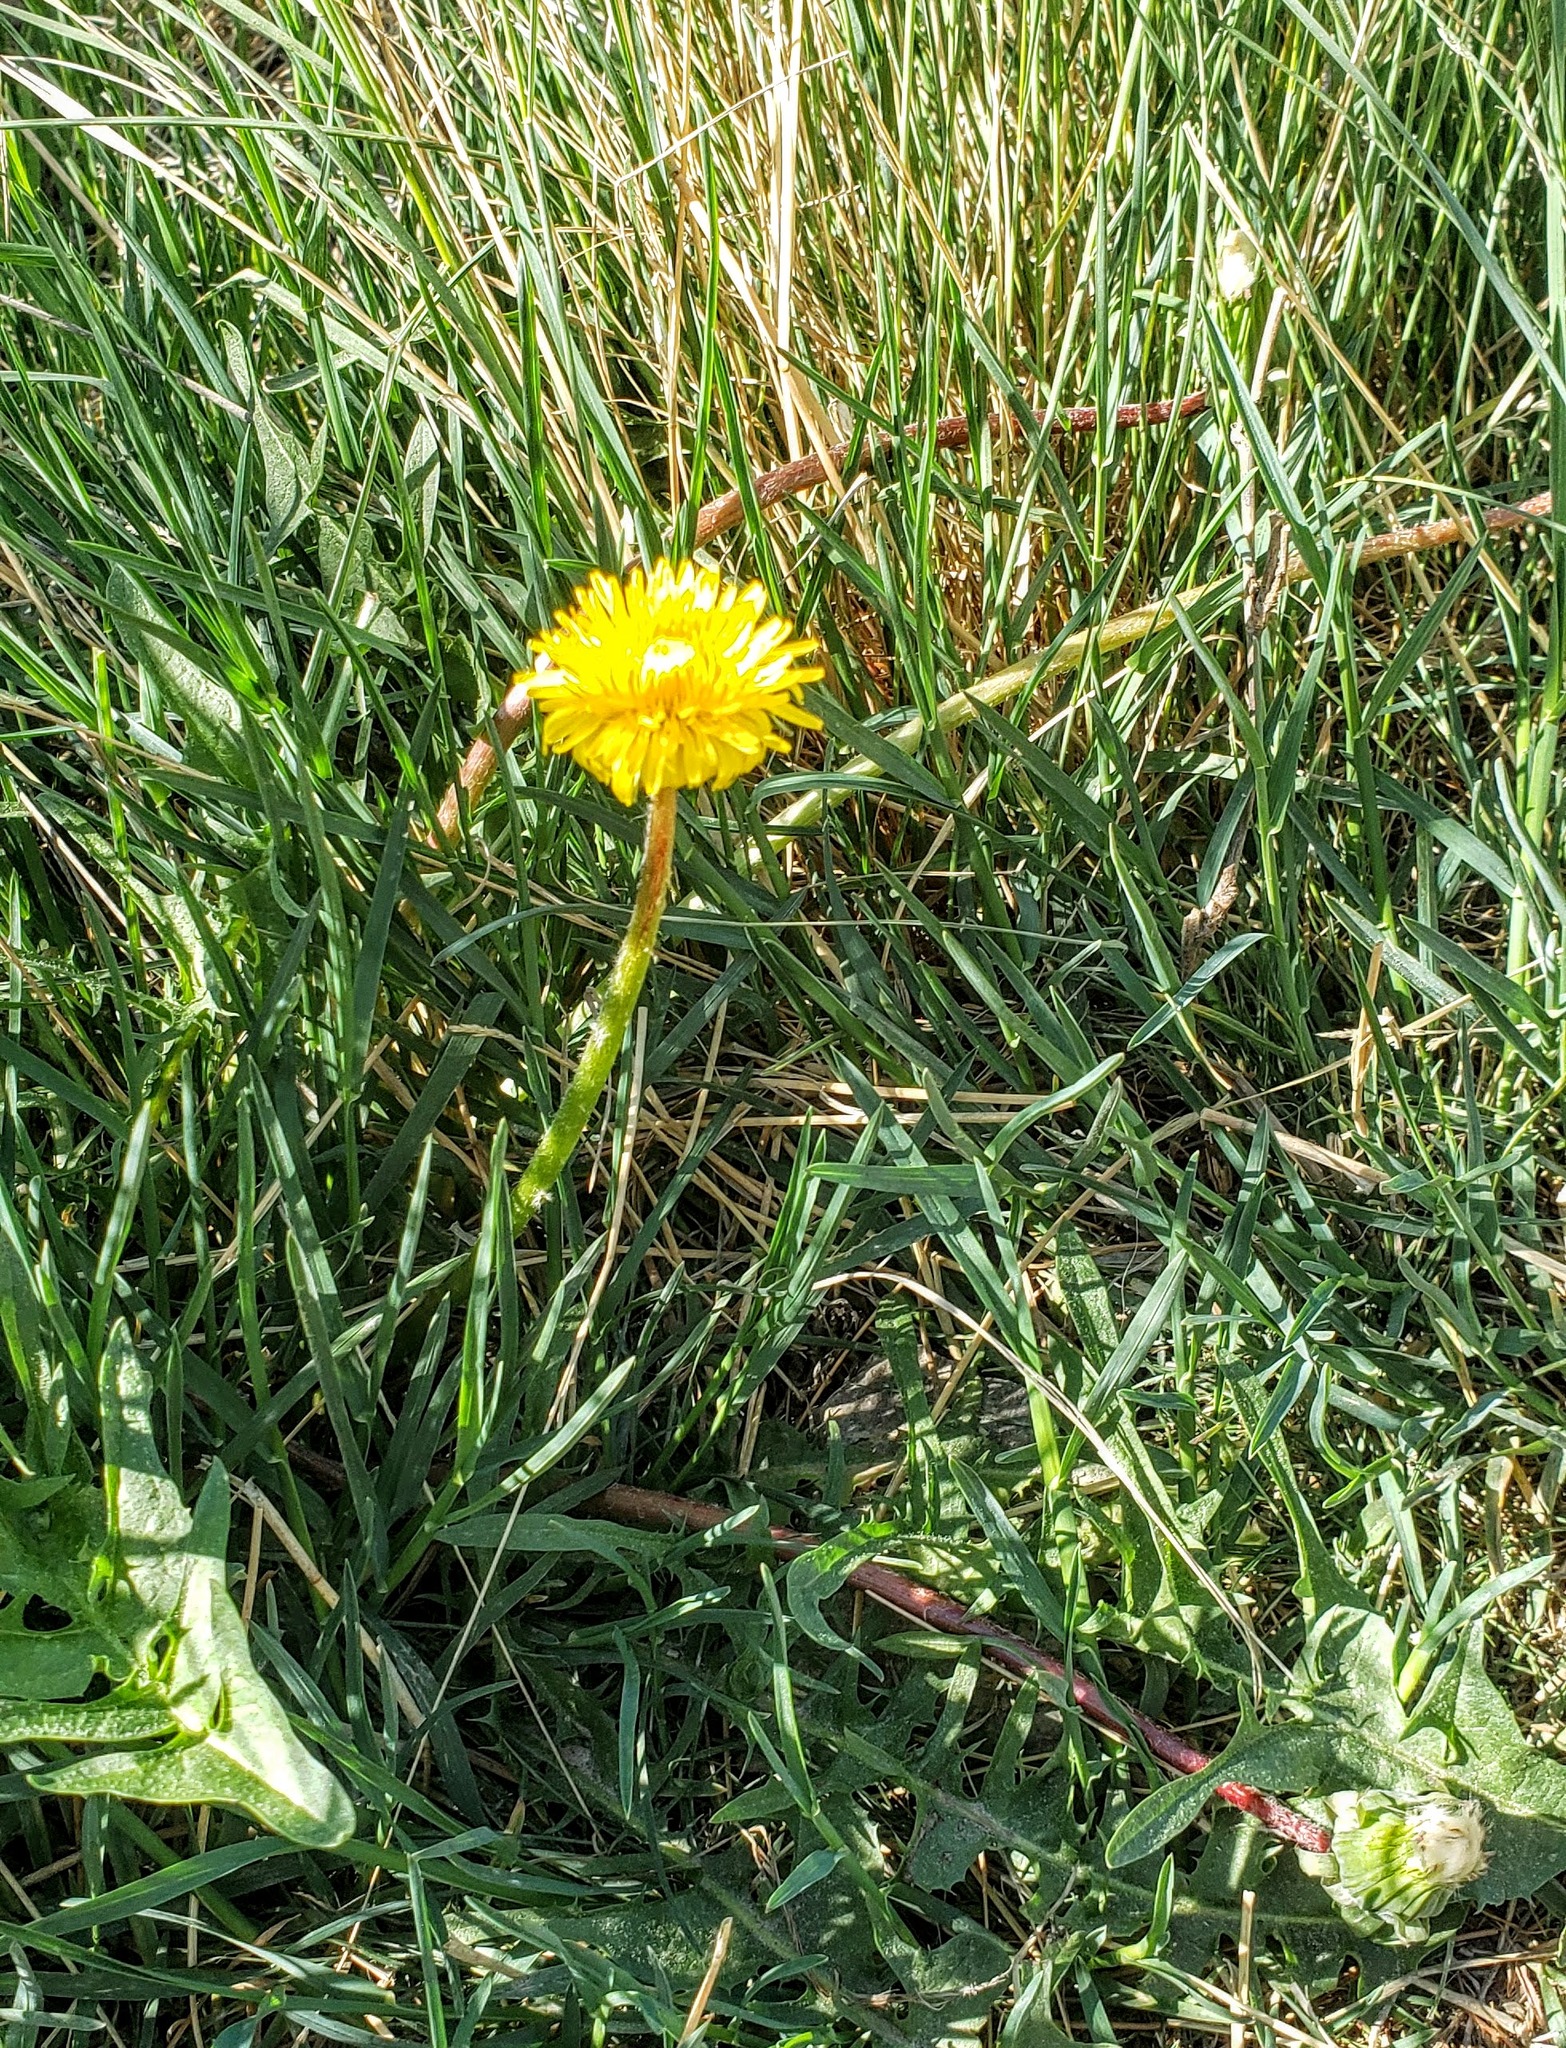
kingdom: Plantae
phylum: Tracheophyta
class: Magnoliopsida
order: Asterales
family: Asteraceae
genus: Taraxacum
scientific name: Taraxacum officinale
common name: Common dandelion
